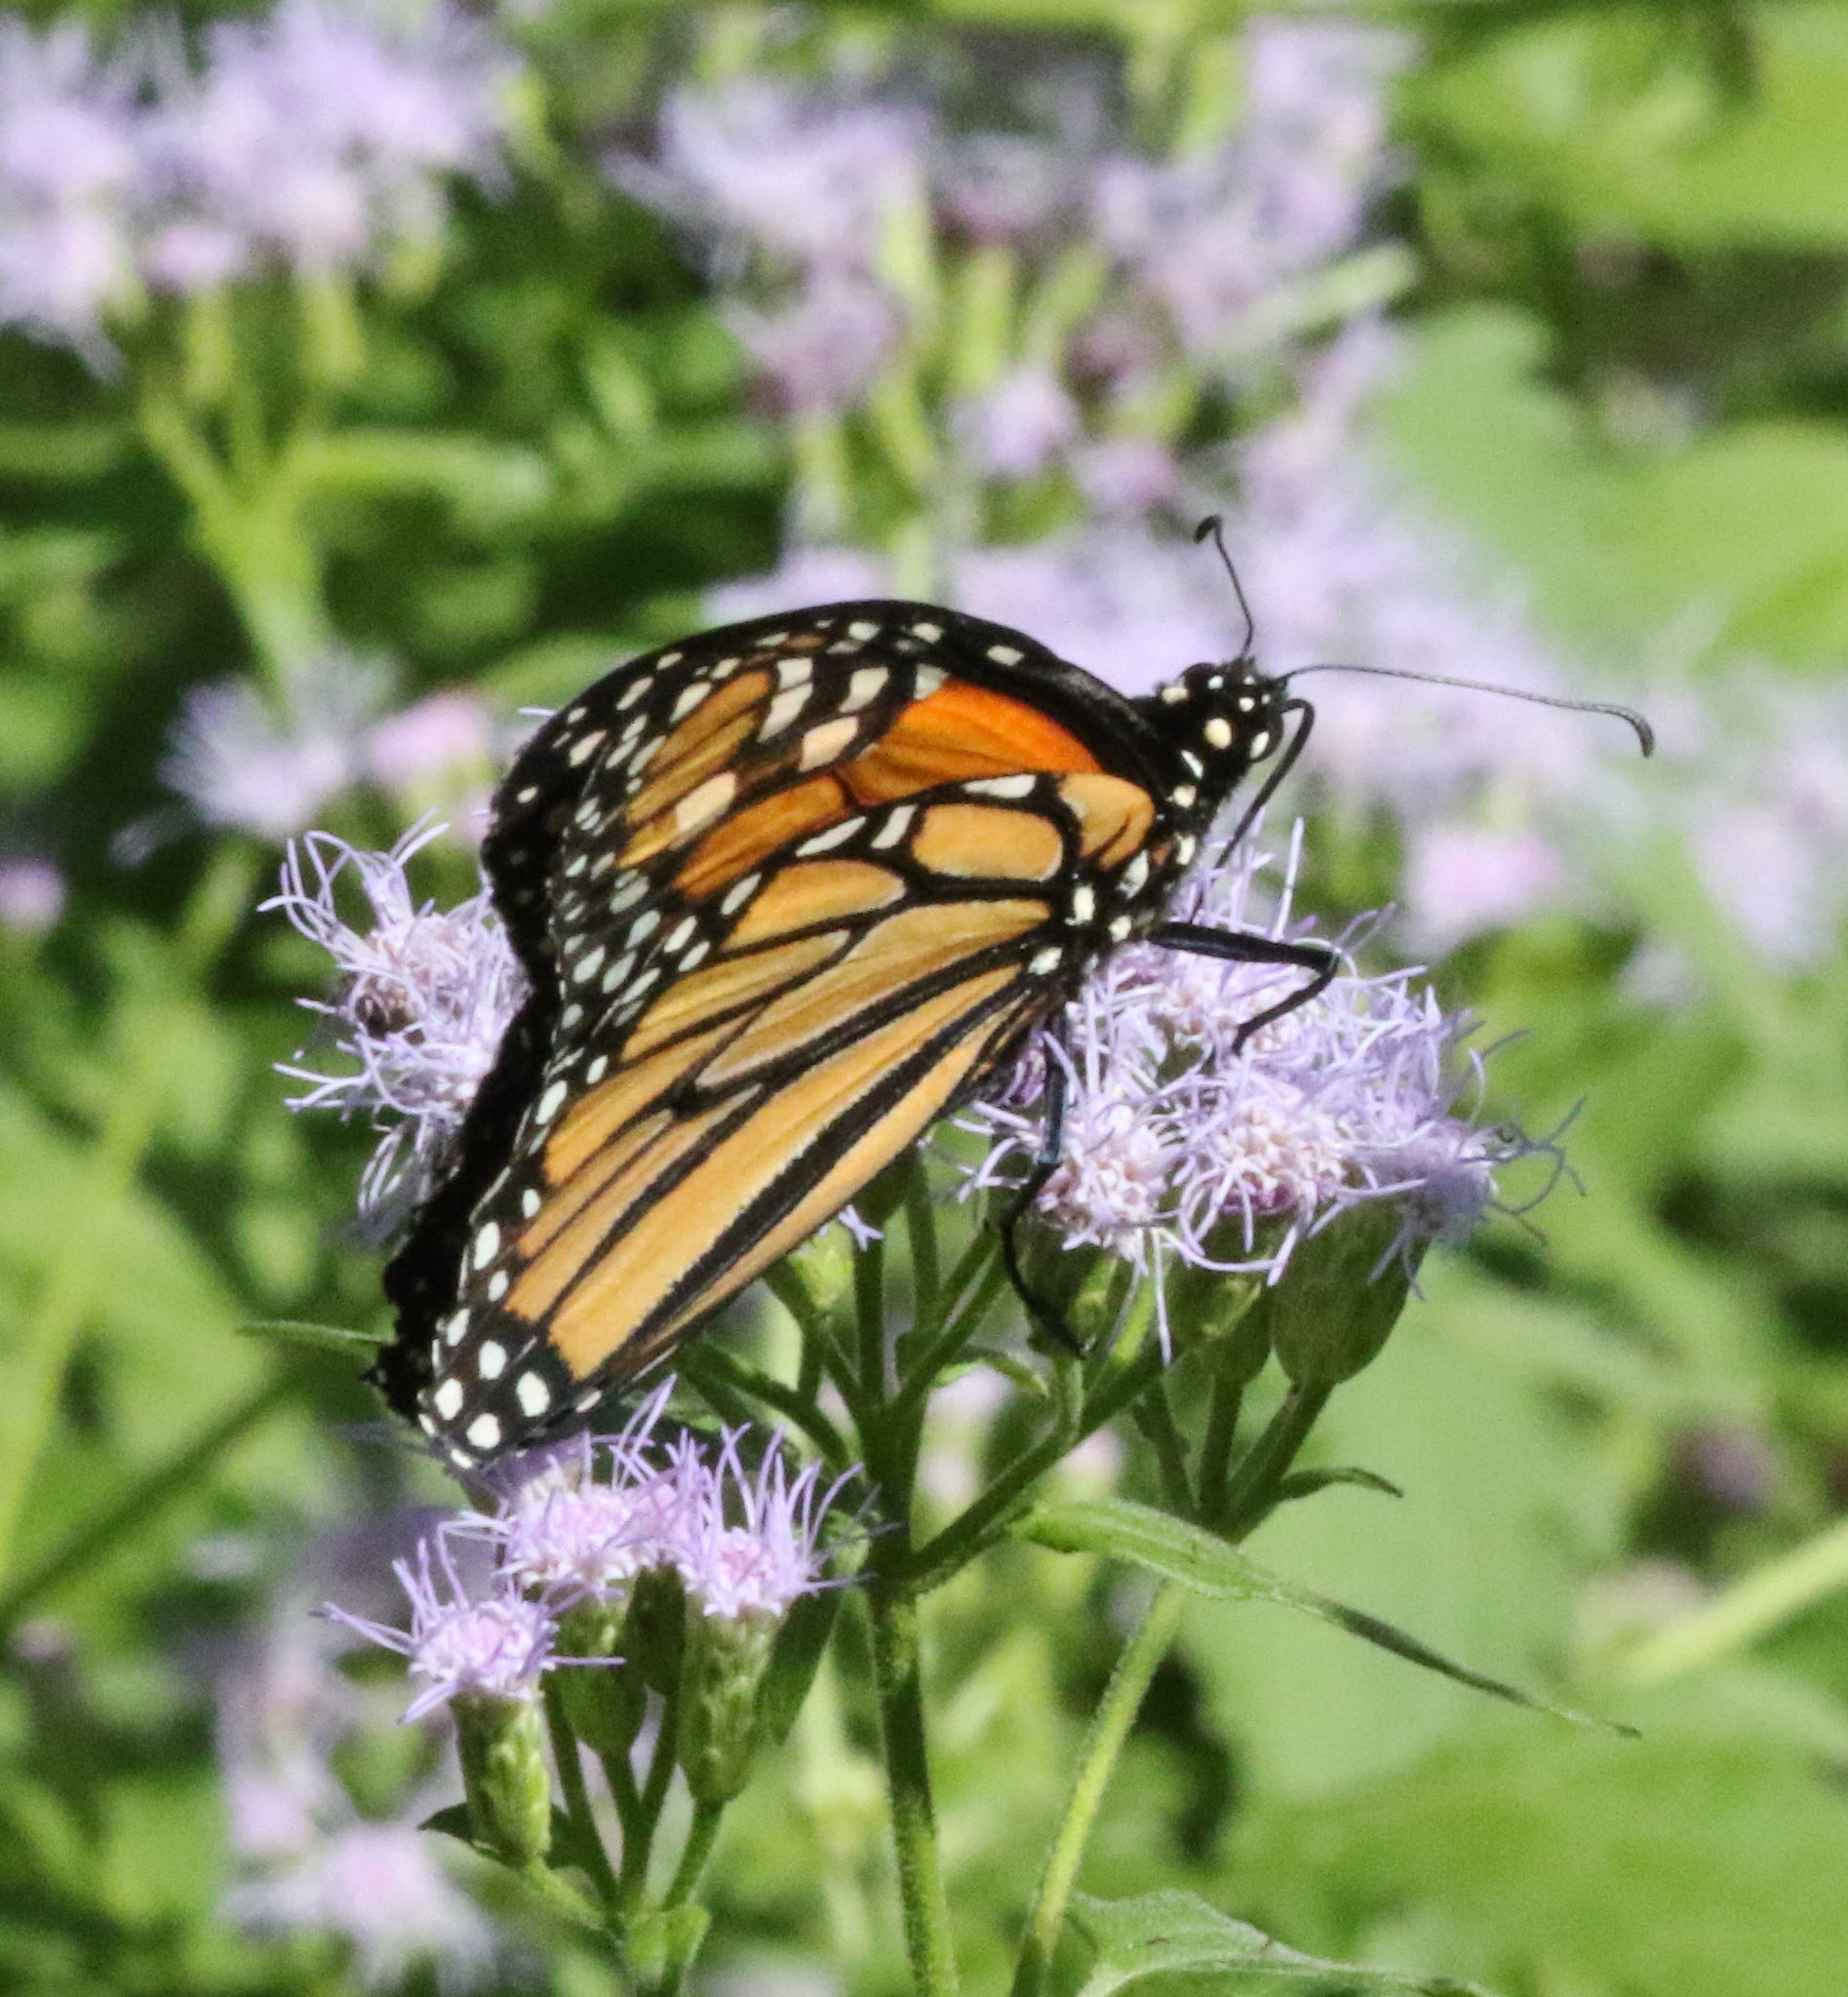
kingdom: Animalia
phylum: Arthropoda
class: Insecta
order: Lepidoptera
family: Nymphalidae
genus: Danaus
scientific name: Danaus plexippus
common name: Monarch
